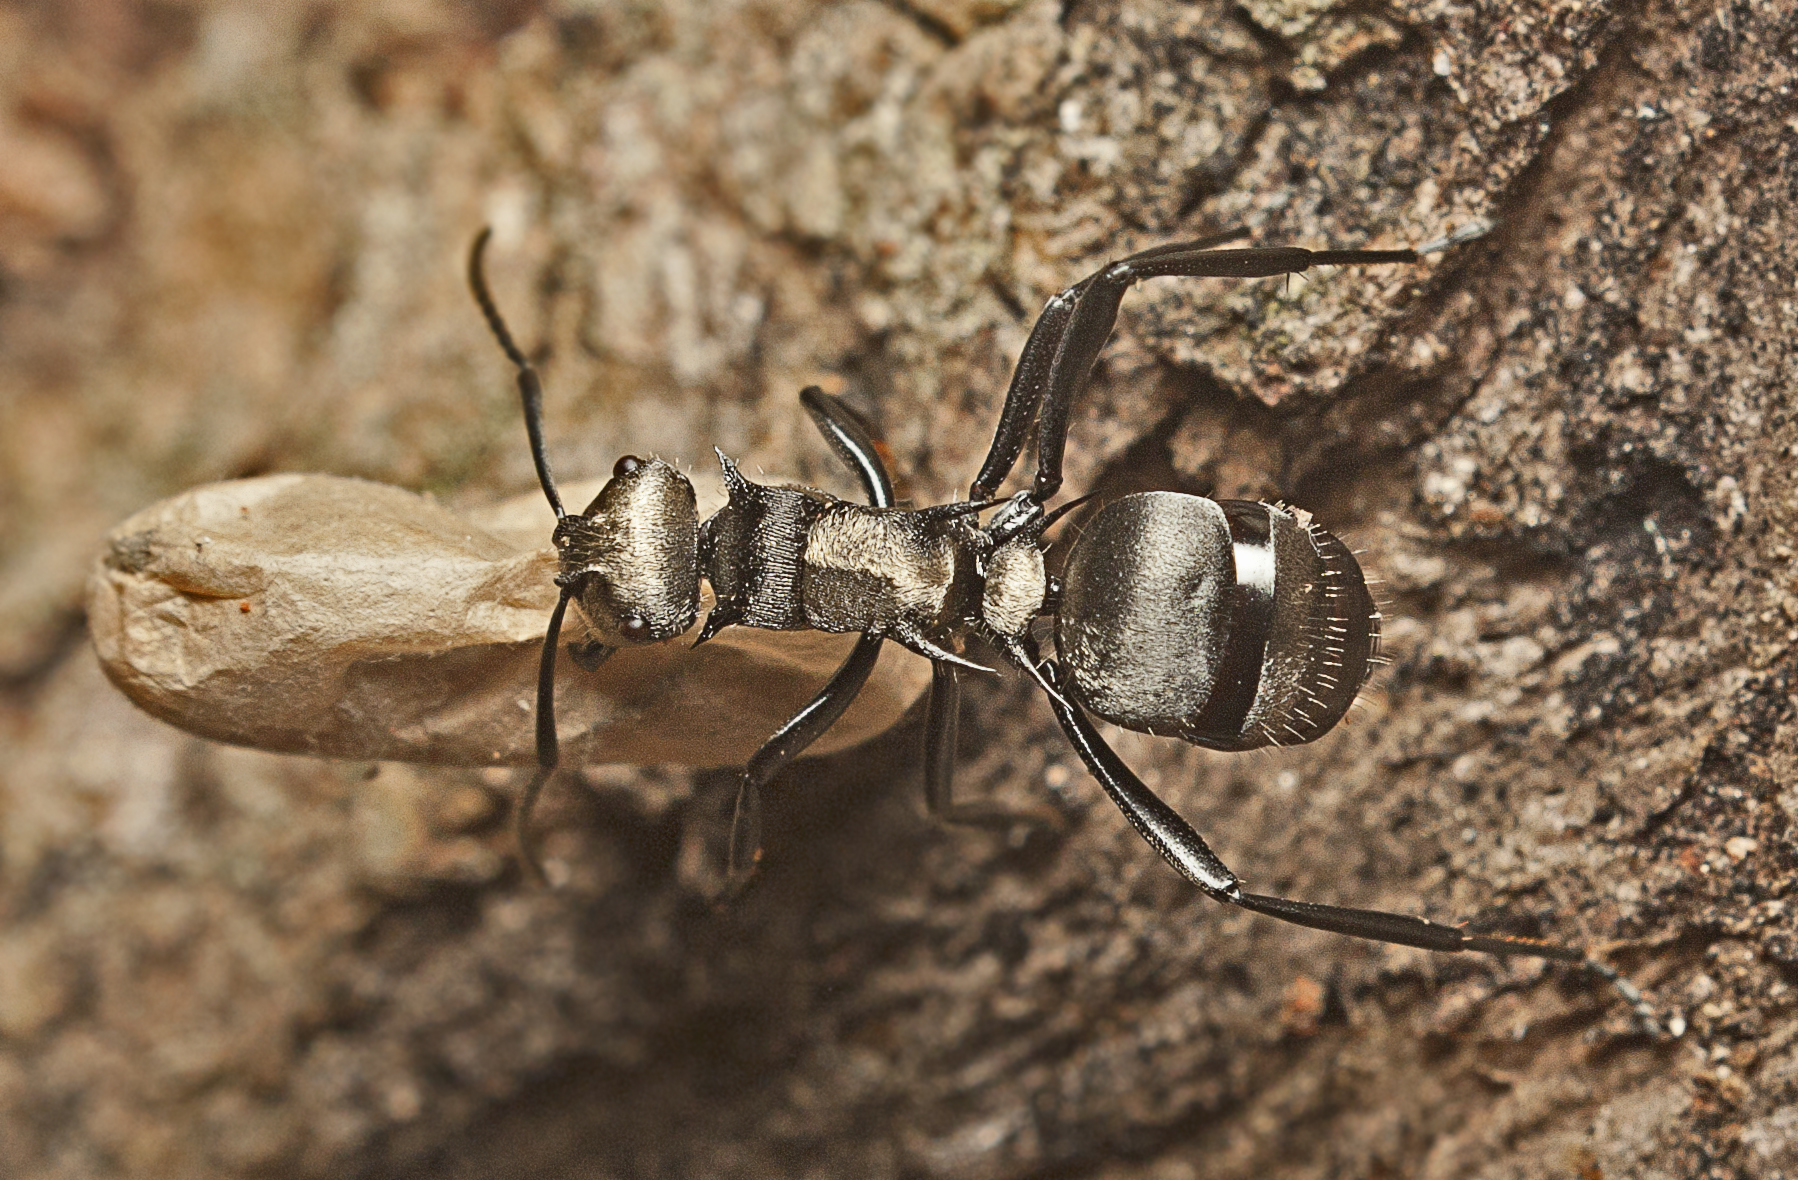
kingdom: Animalia
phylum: Arthropoda
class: Insecta
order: Hymenoptera
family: Formicidae
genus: Polyrhachis
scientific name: Polyrhachis daemeli
